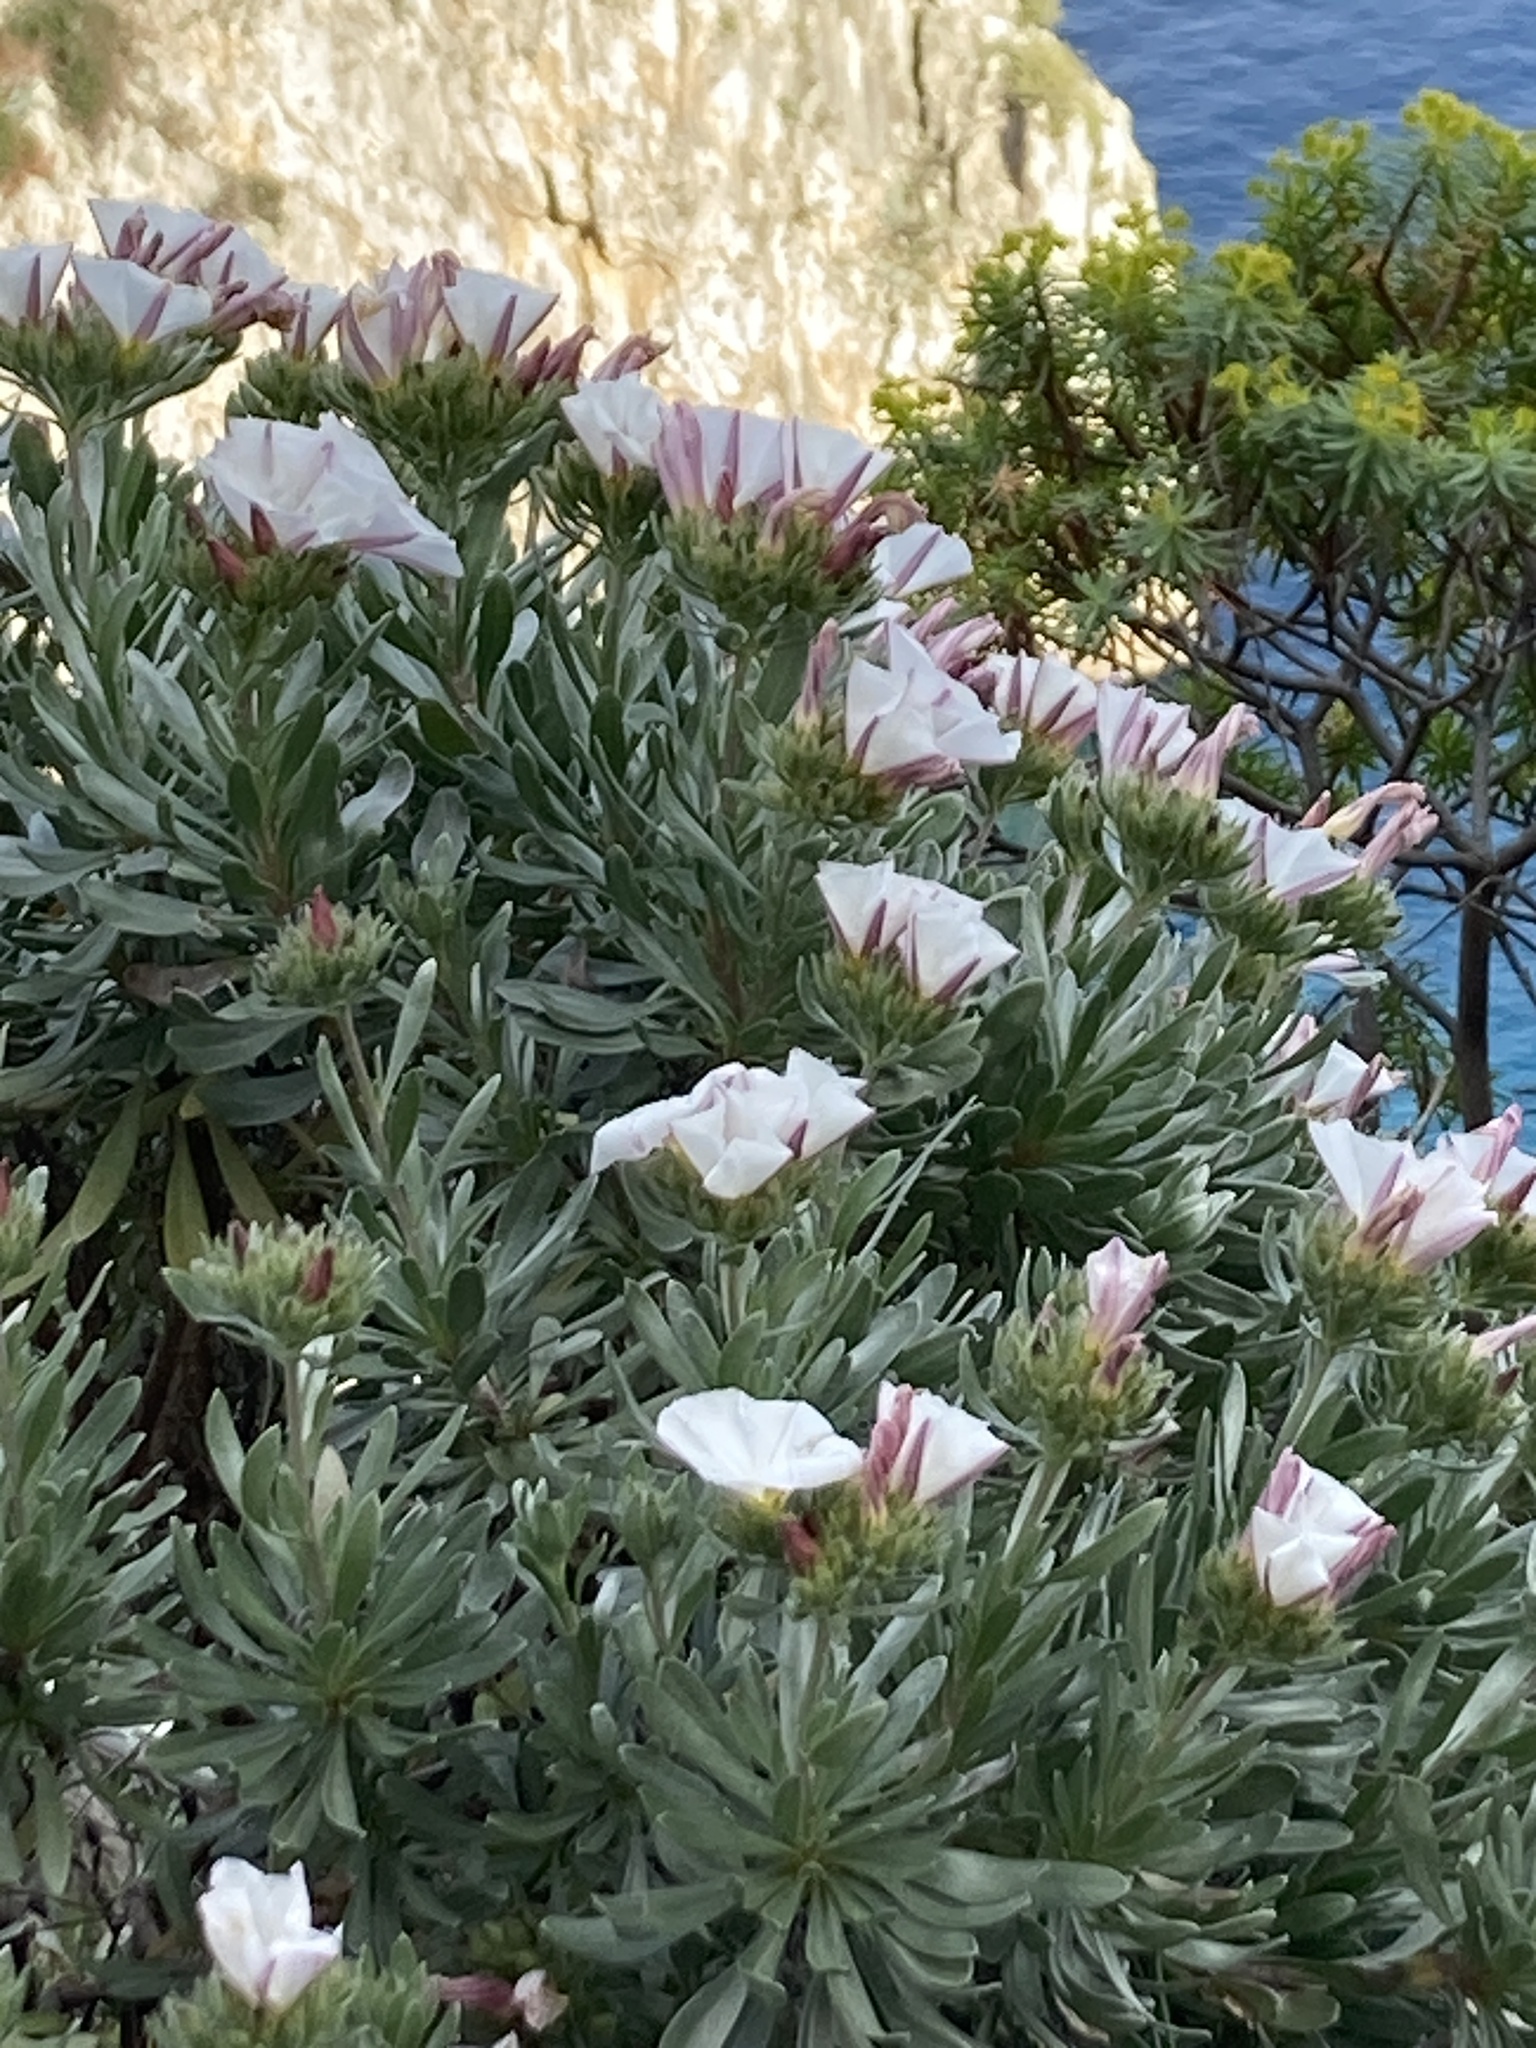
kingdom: Plantae
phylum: Tracheophyta
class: Magnoliopsida
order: Solanales
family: Convolvulaceae
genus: Convolvulus
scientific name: Convolvulus cneorum
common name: Silverbush
